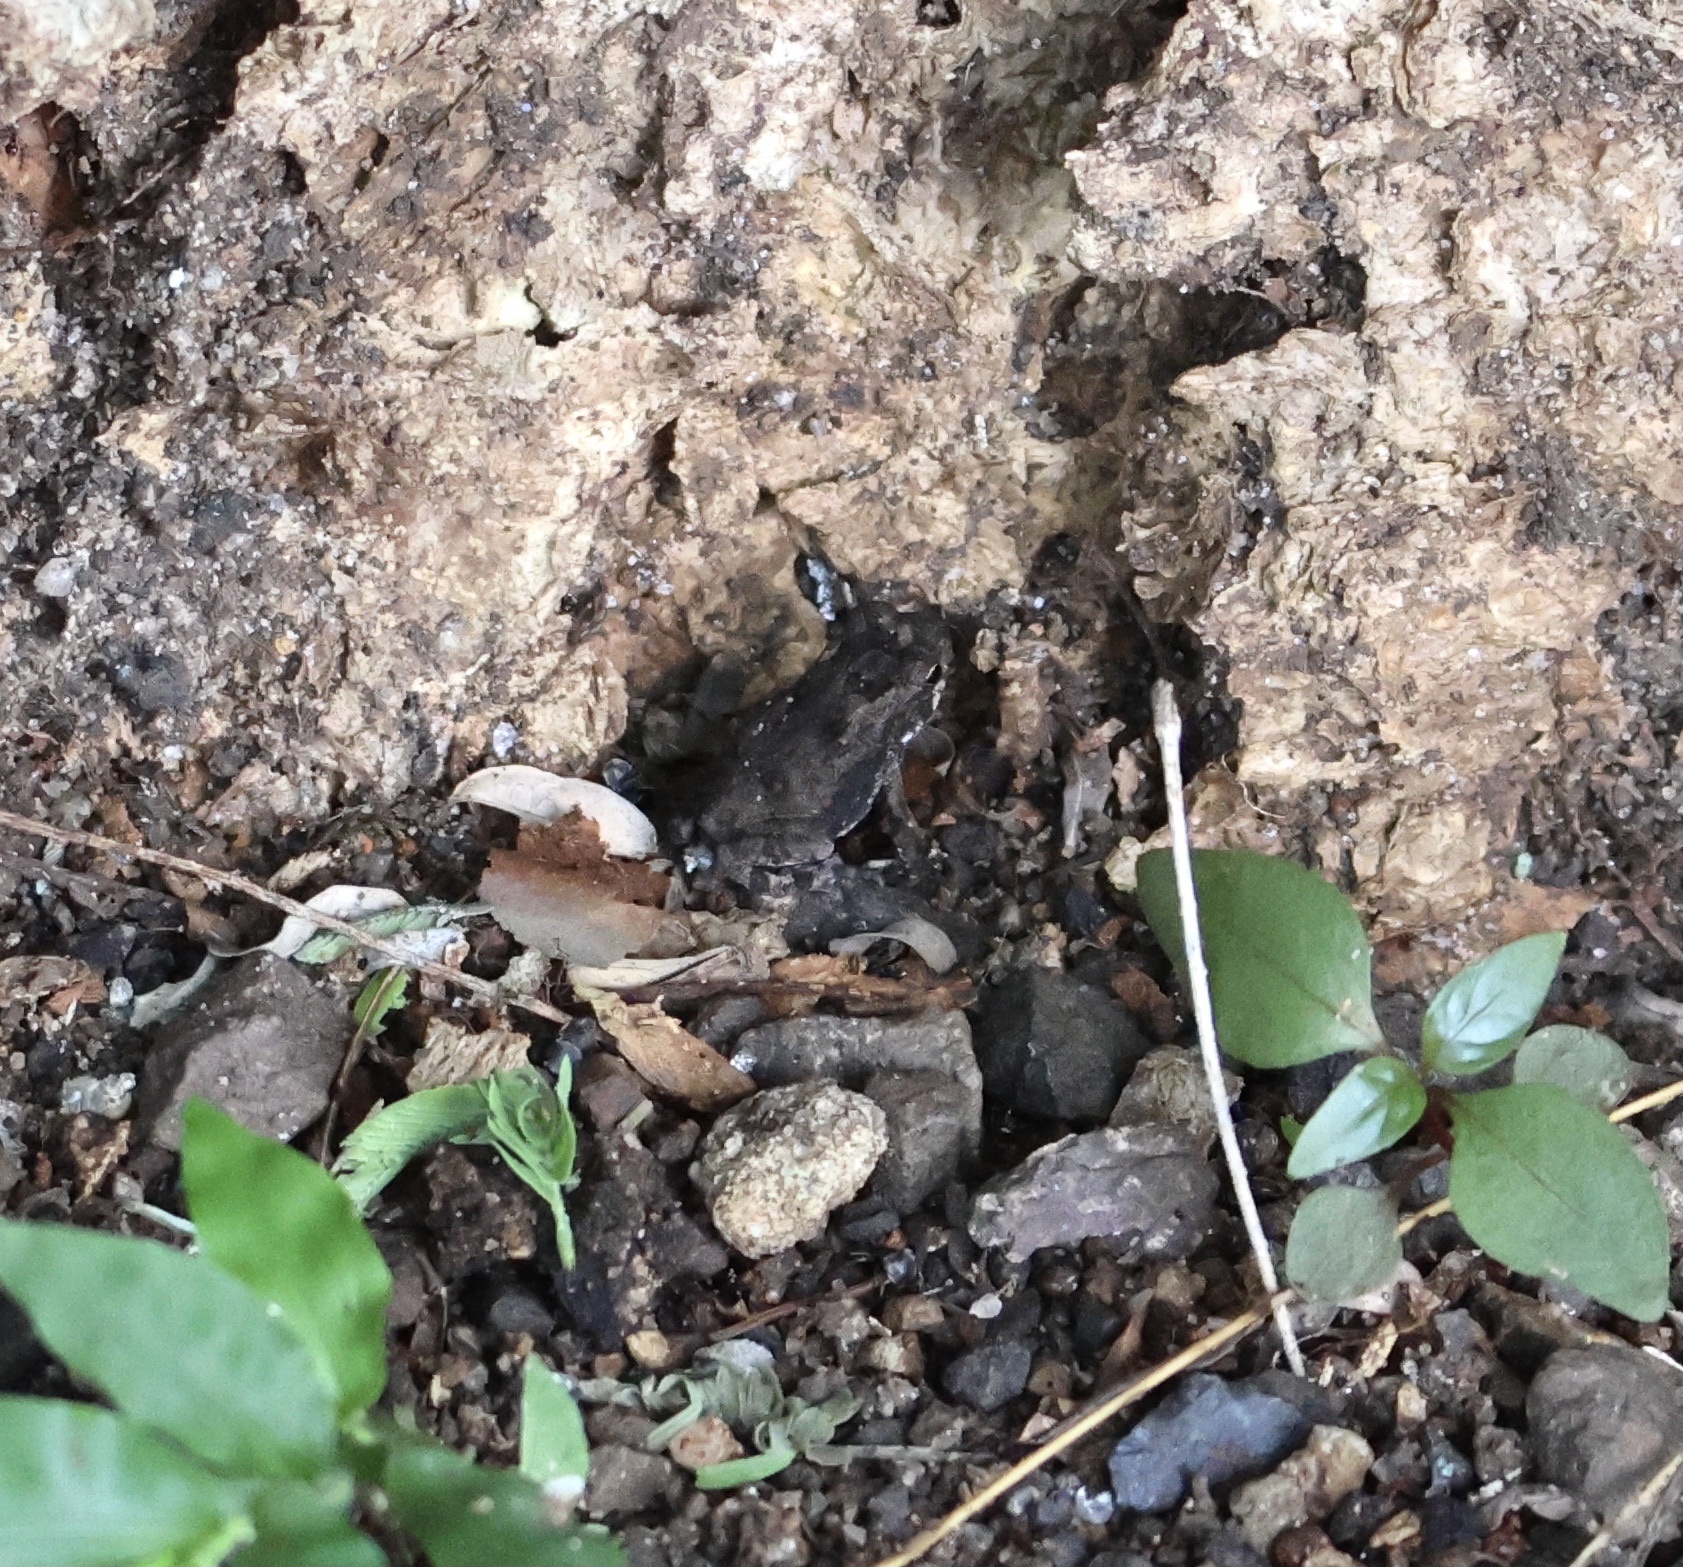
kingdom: Animalia
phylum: Chordata
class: Amphibia
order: Anura
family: Bufonidae
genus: Rhinella
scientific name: Rhinella horribilis
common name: Mesoamerican cane toad
